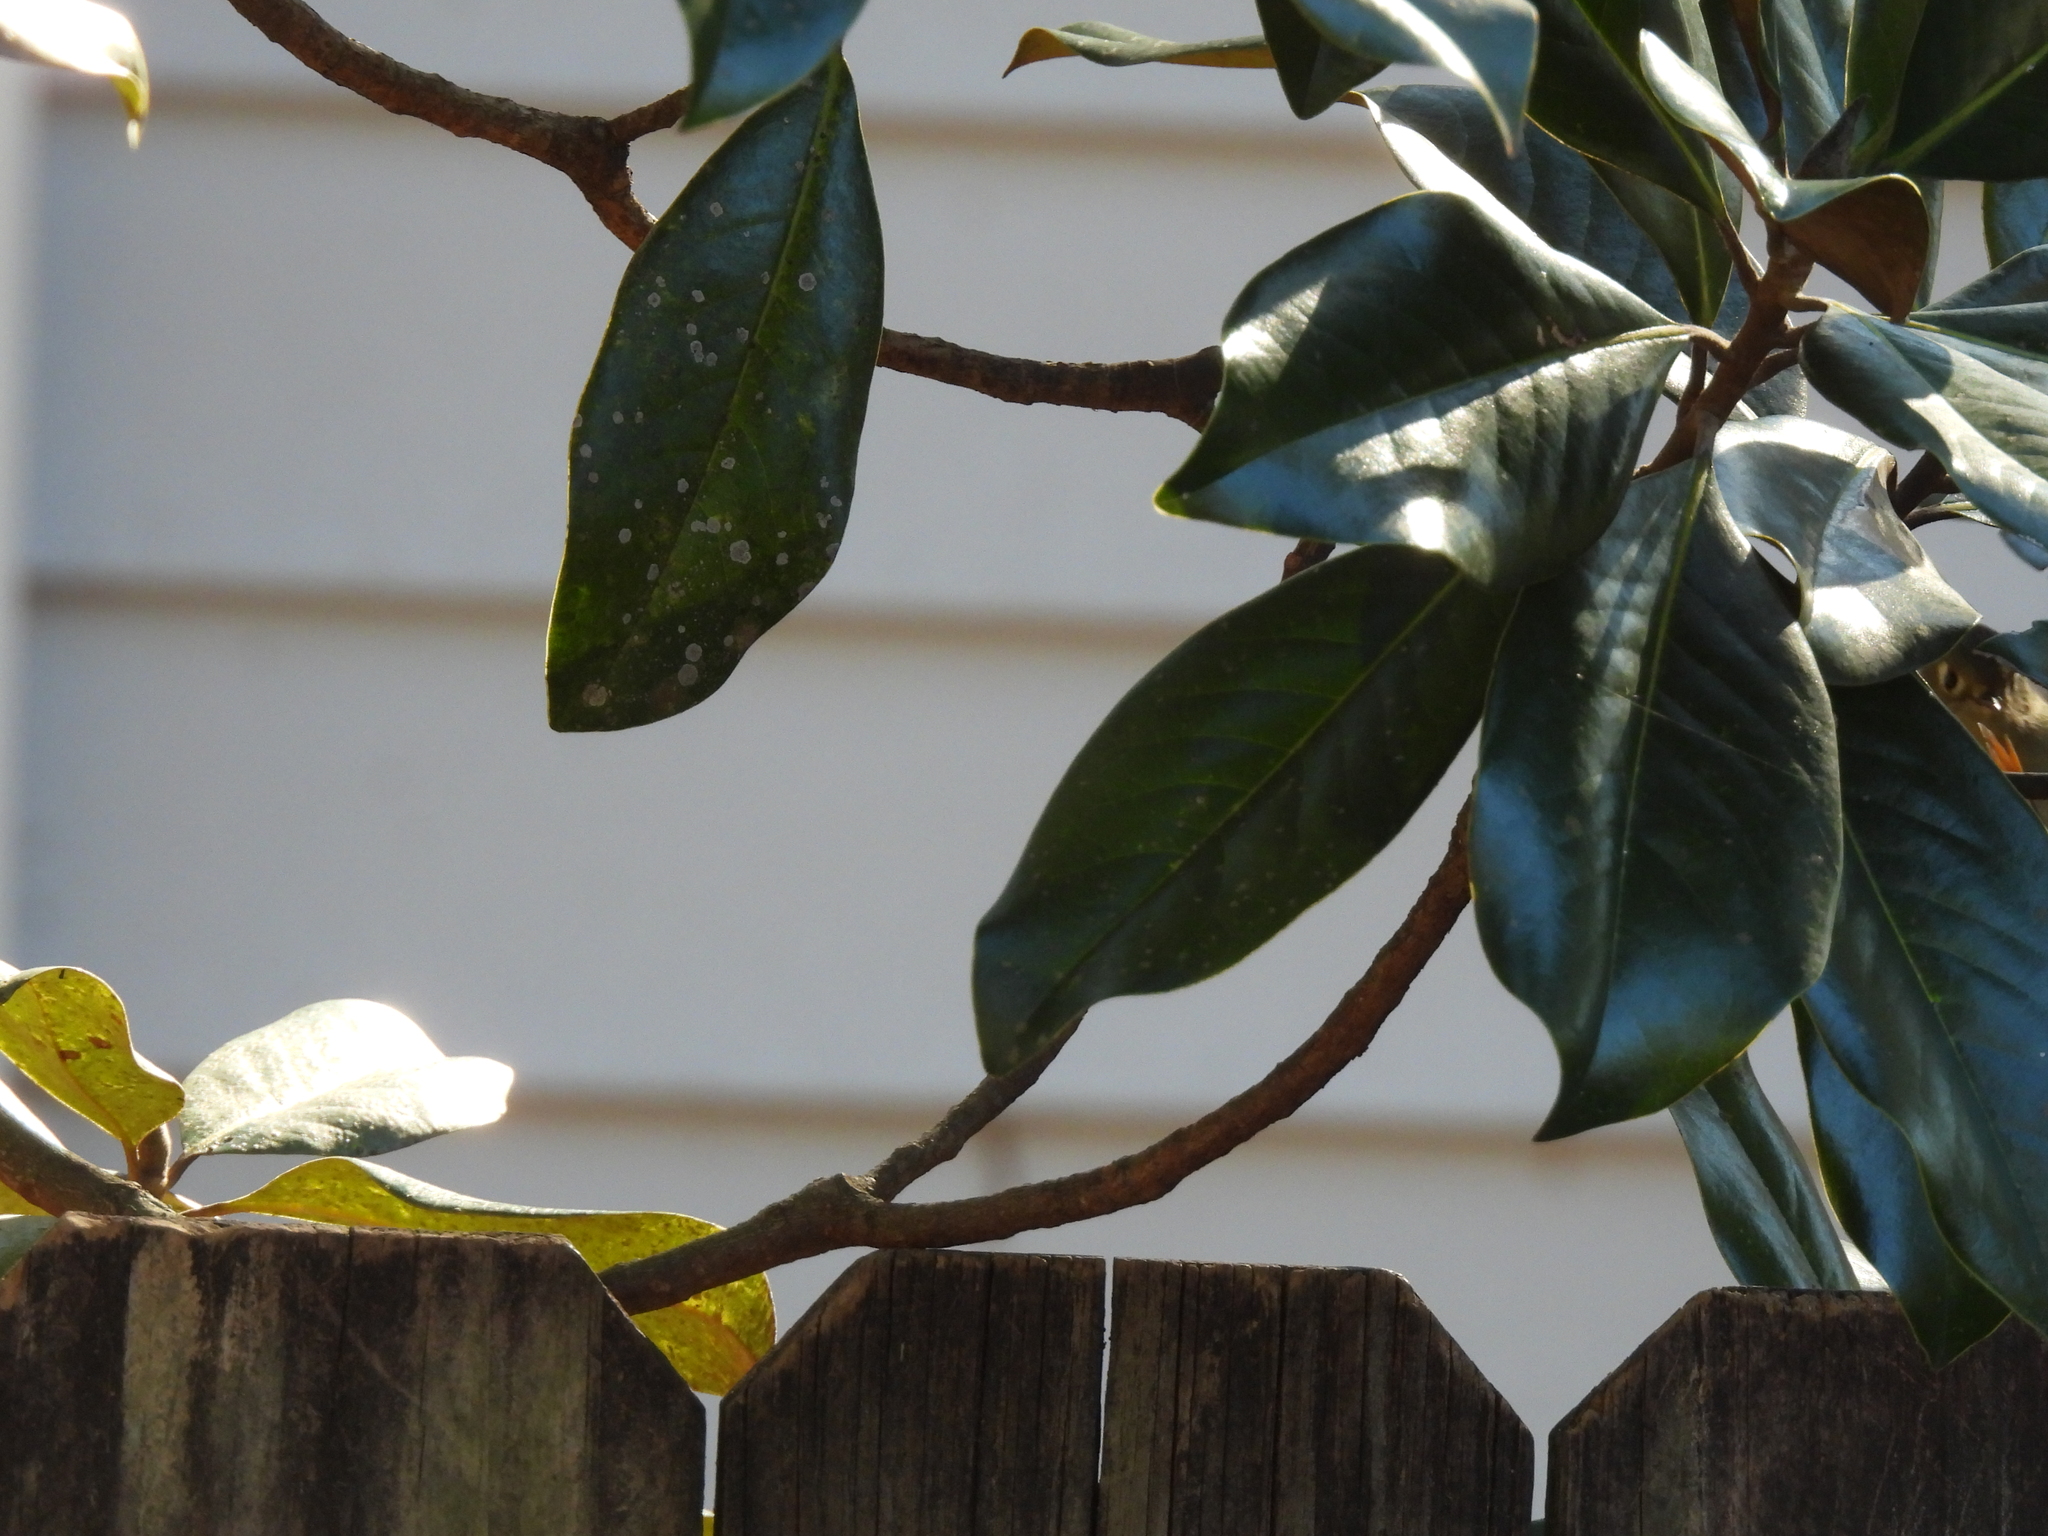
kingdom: Animalia
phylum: Chordata
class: Aves
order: Passeriformes
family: Regulidae
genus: Regulus
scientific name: Regulus calendula
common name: Ruby-crowned kinglet
